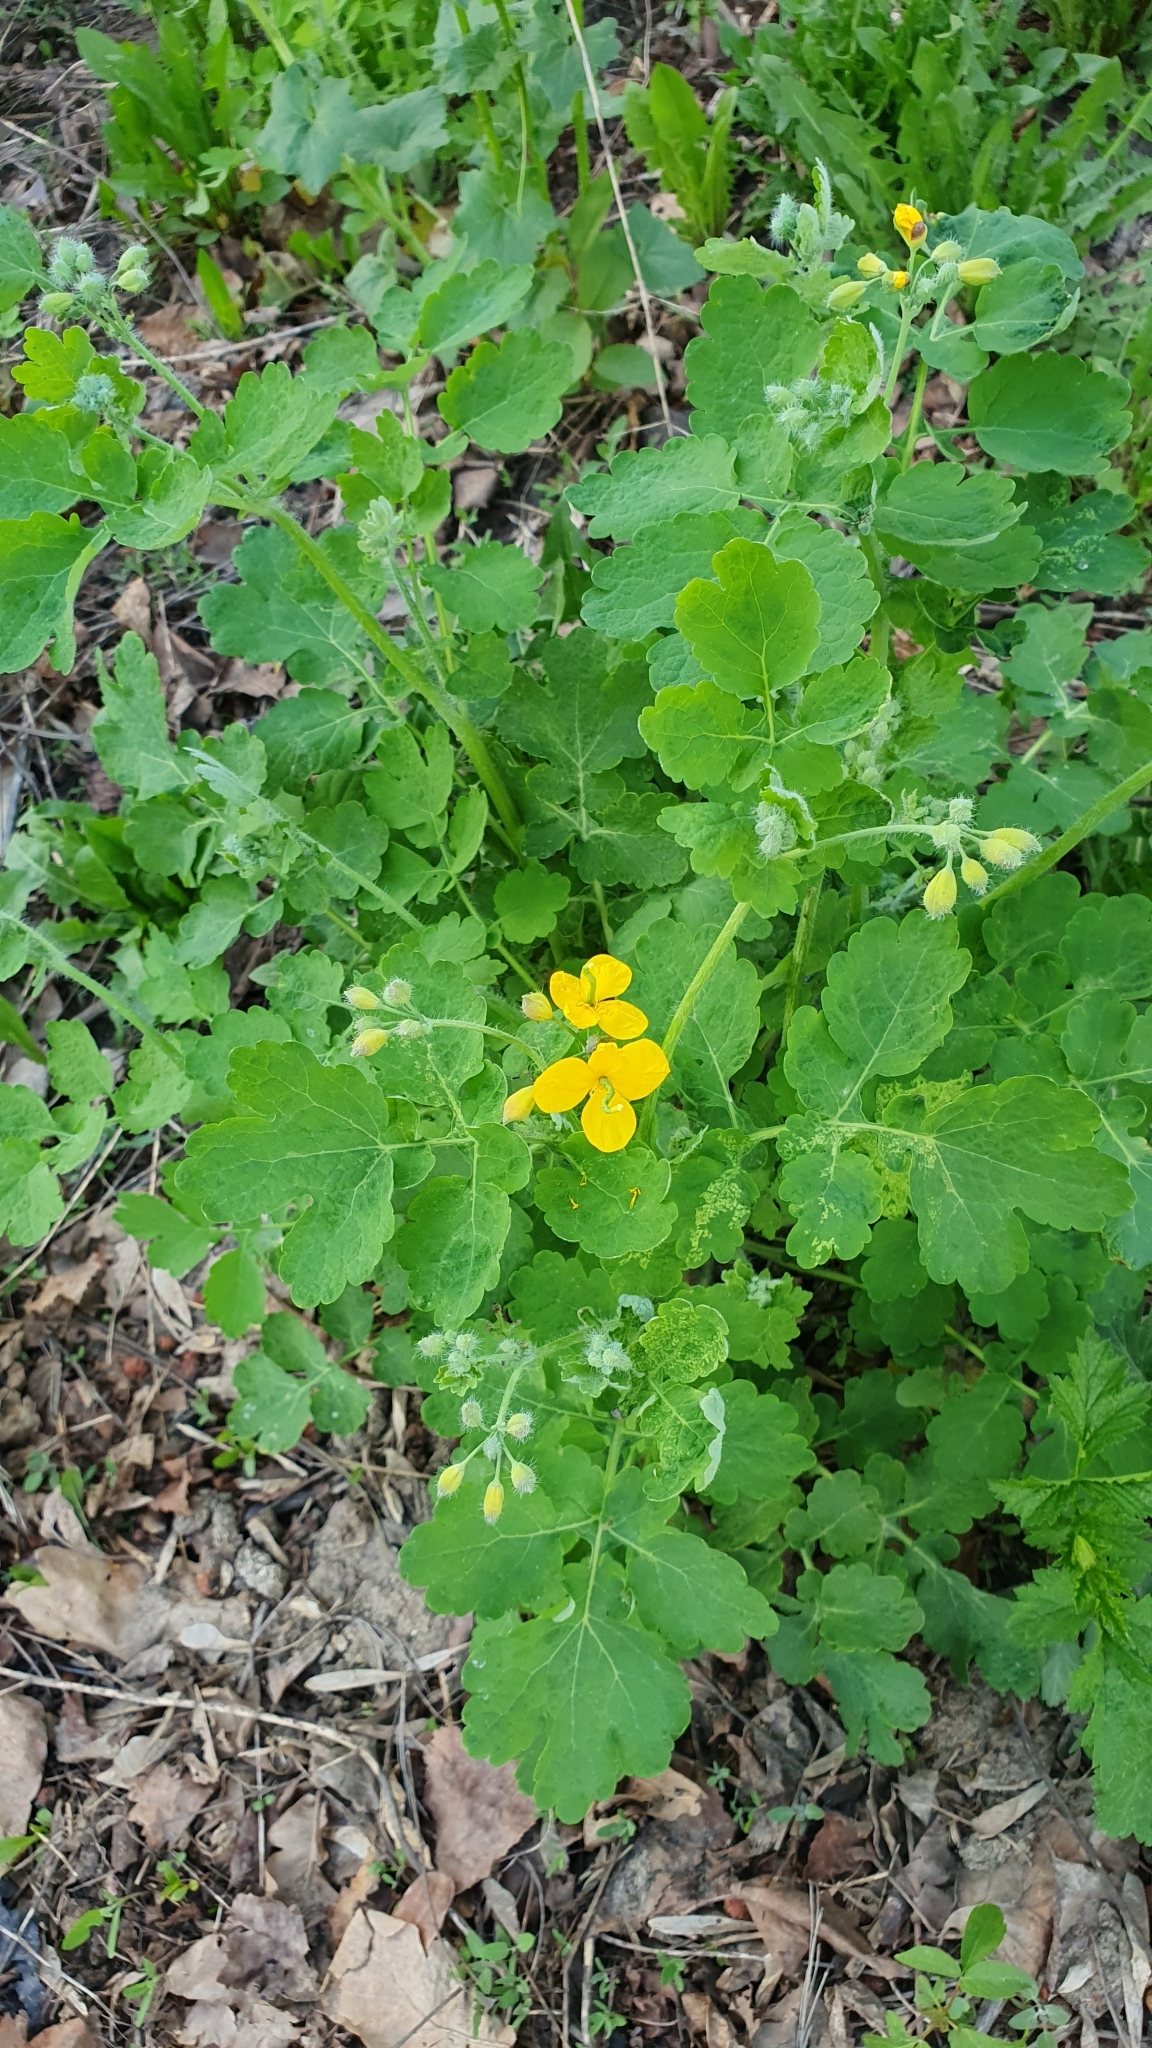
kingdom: Plantae
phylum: Tracheophyta
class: Magnoliopsida
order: Ranunculales
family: Papaveraceae
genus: Chelidonium
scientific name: Chelidonium majus
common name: Greater celandine
